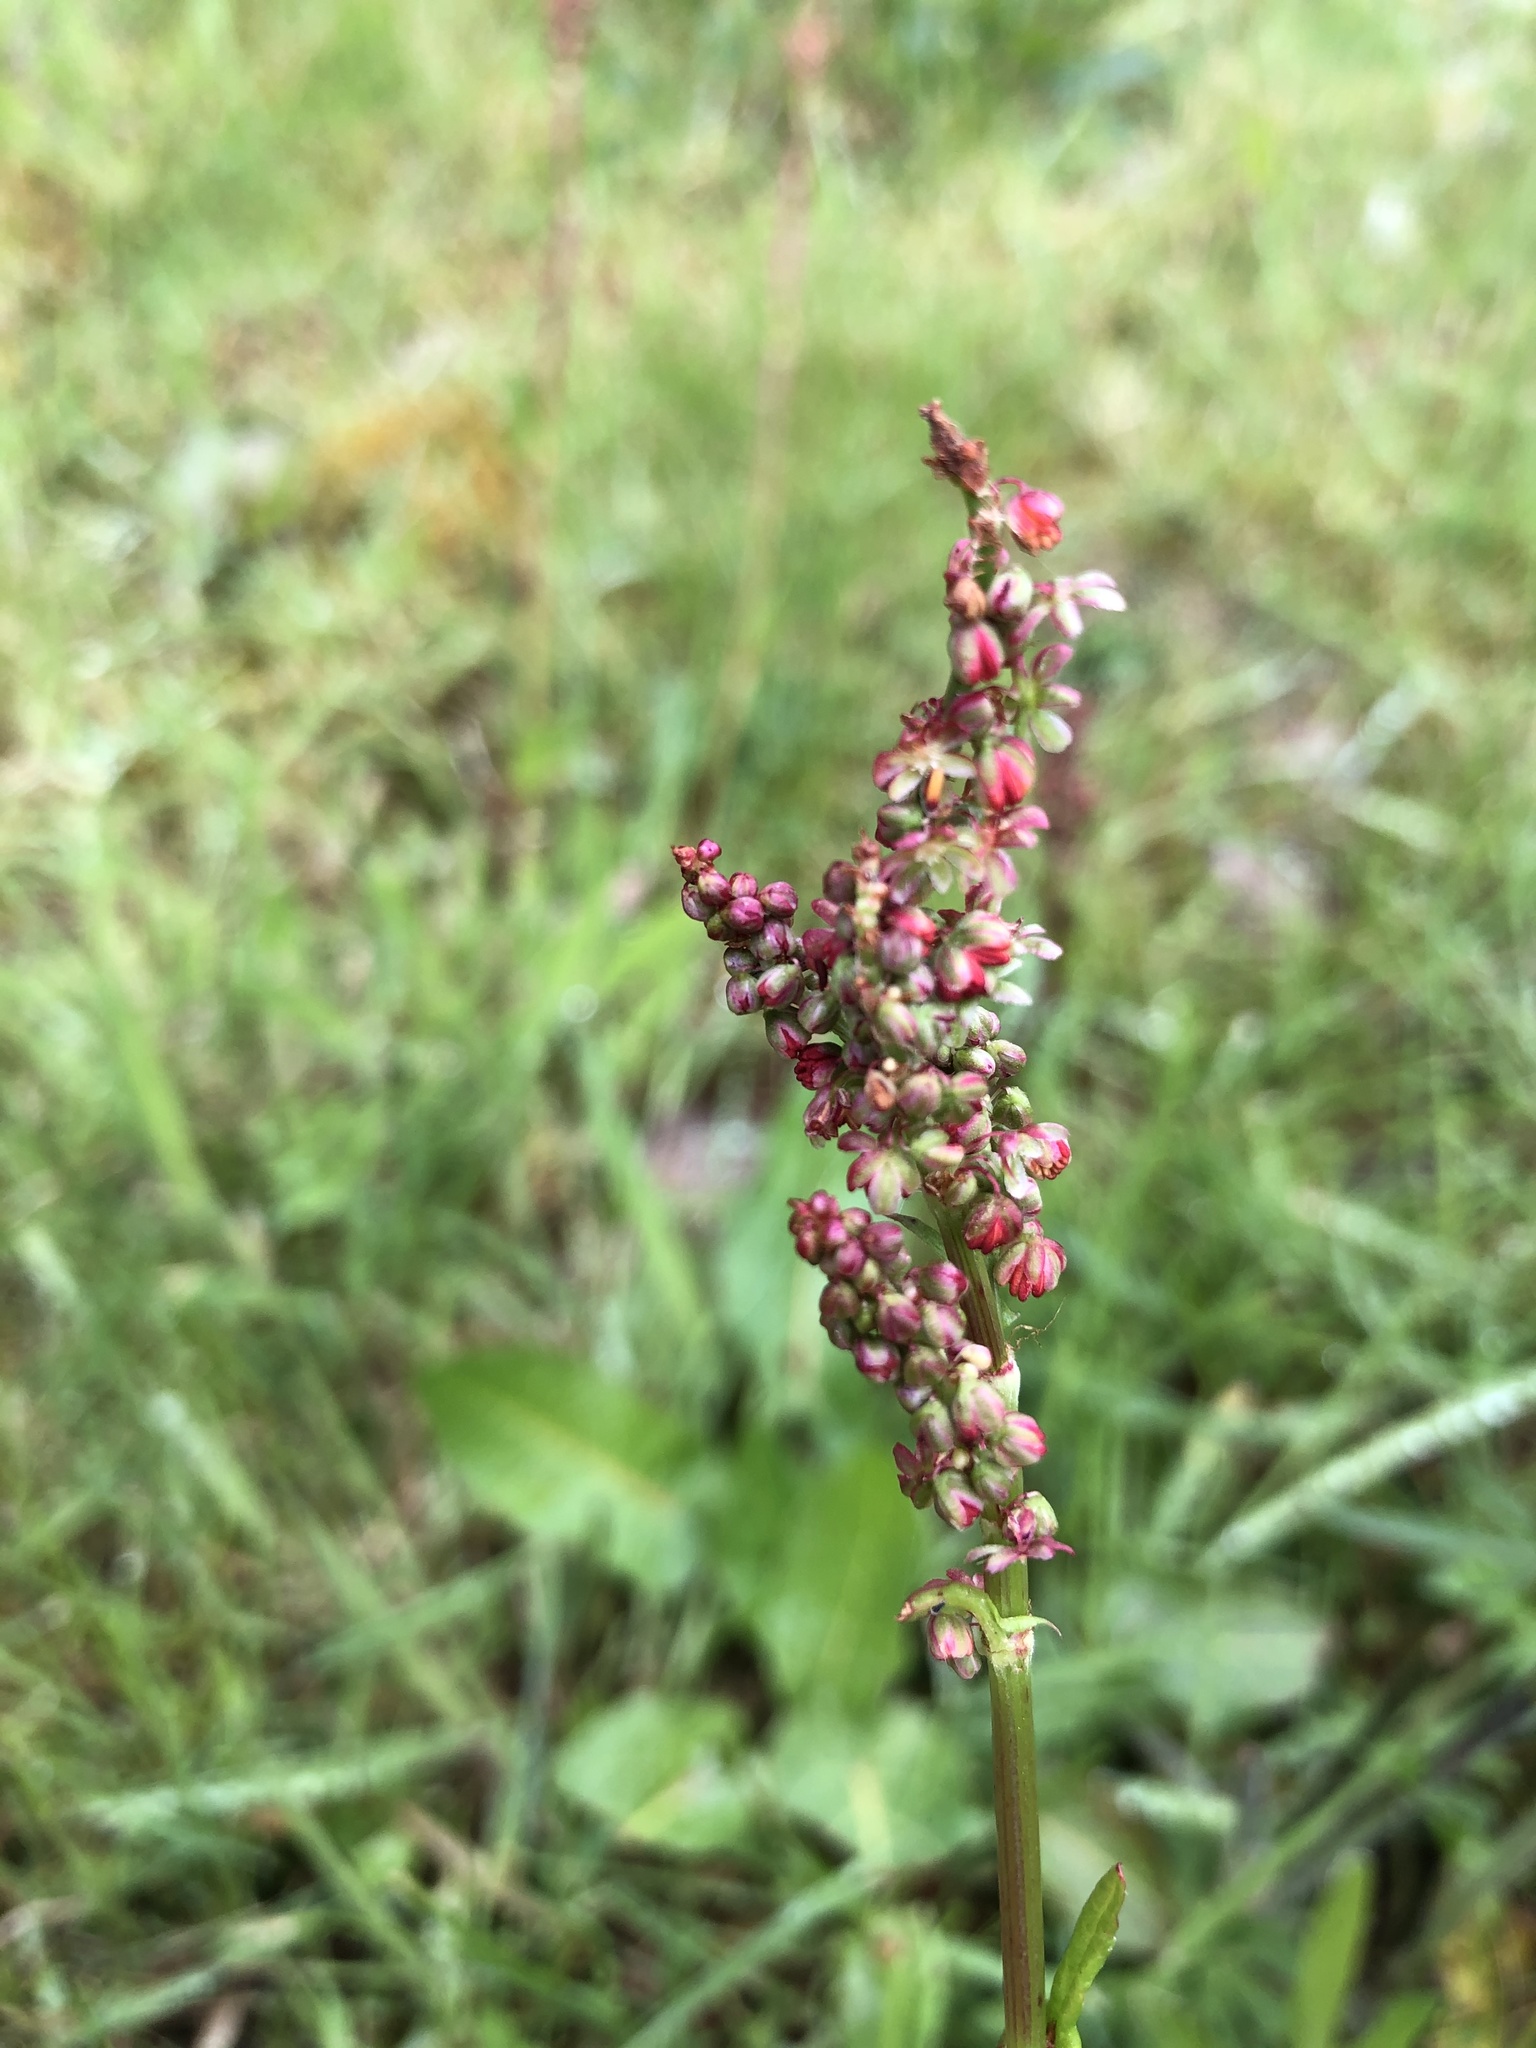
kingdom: Plantae
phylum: Tracheophyta
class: Magnoliopsida
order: Caryophyllales
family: Polygonaceae
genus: Rumex
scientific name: Rumex acetosa
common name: Garden sorrel
